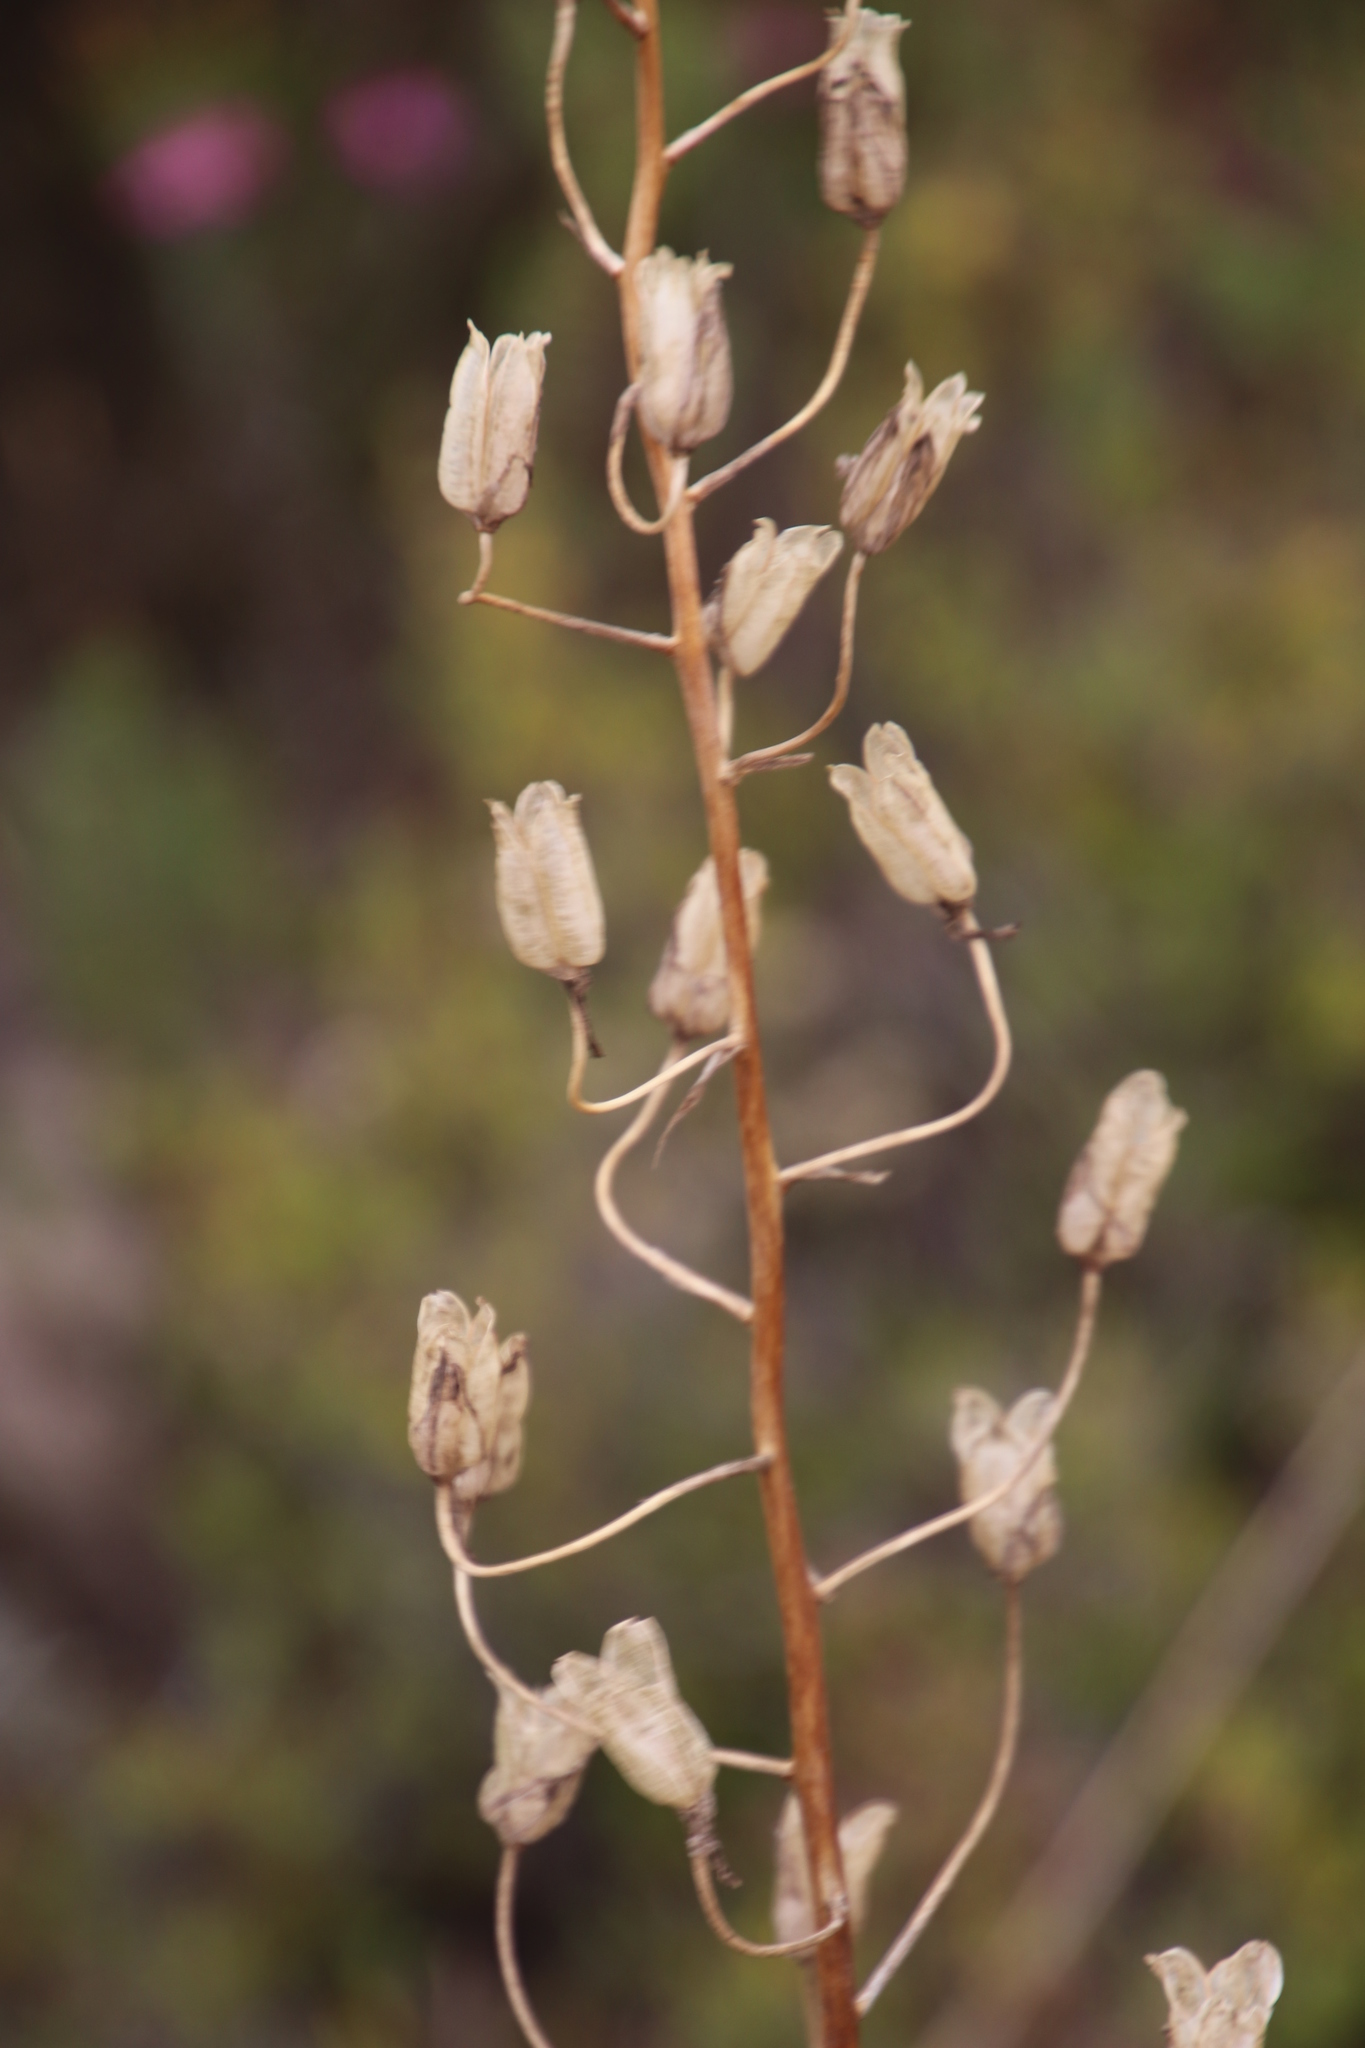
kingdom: Plantae
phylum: Tracheophyta
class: Liliopsida
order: Asparagales
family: Asparagaceae
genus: Albuca
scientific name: Albuca canadensis
